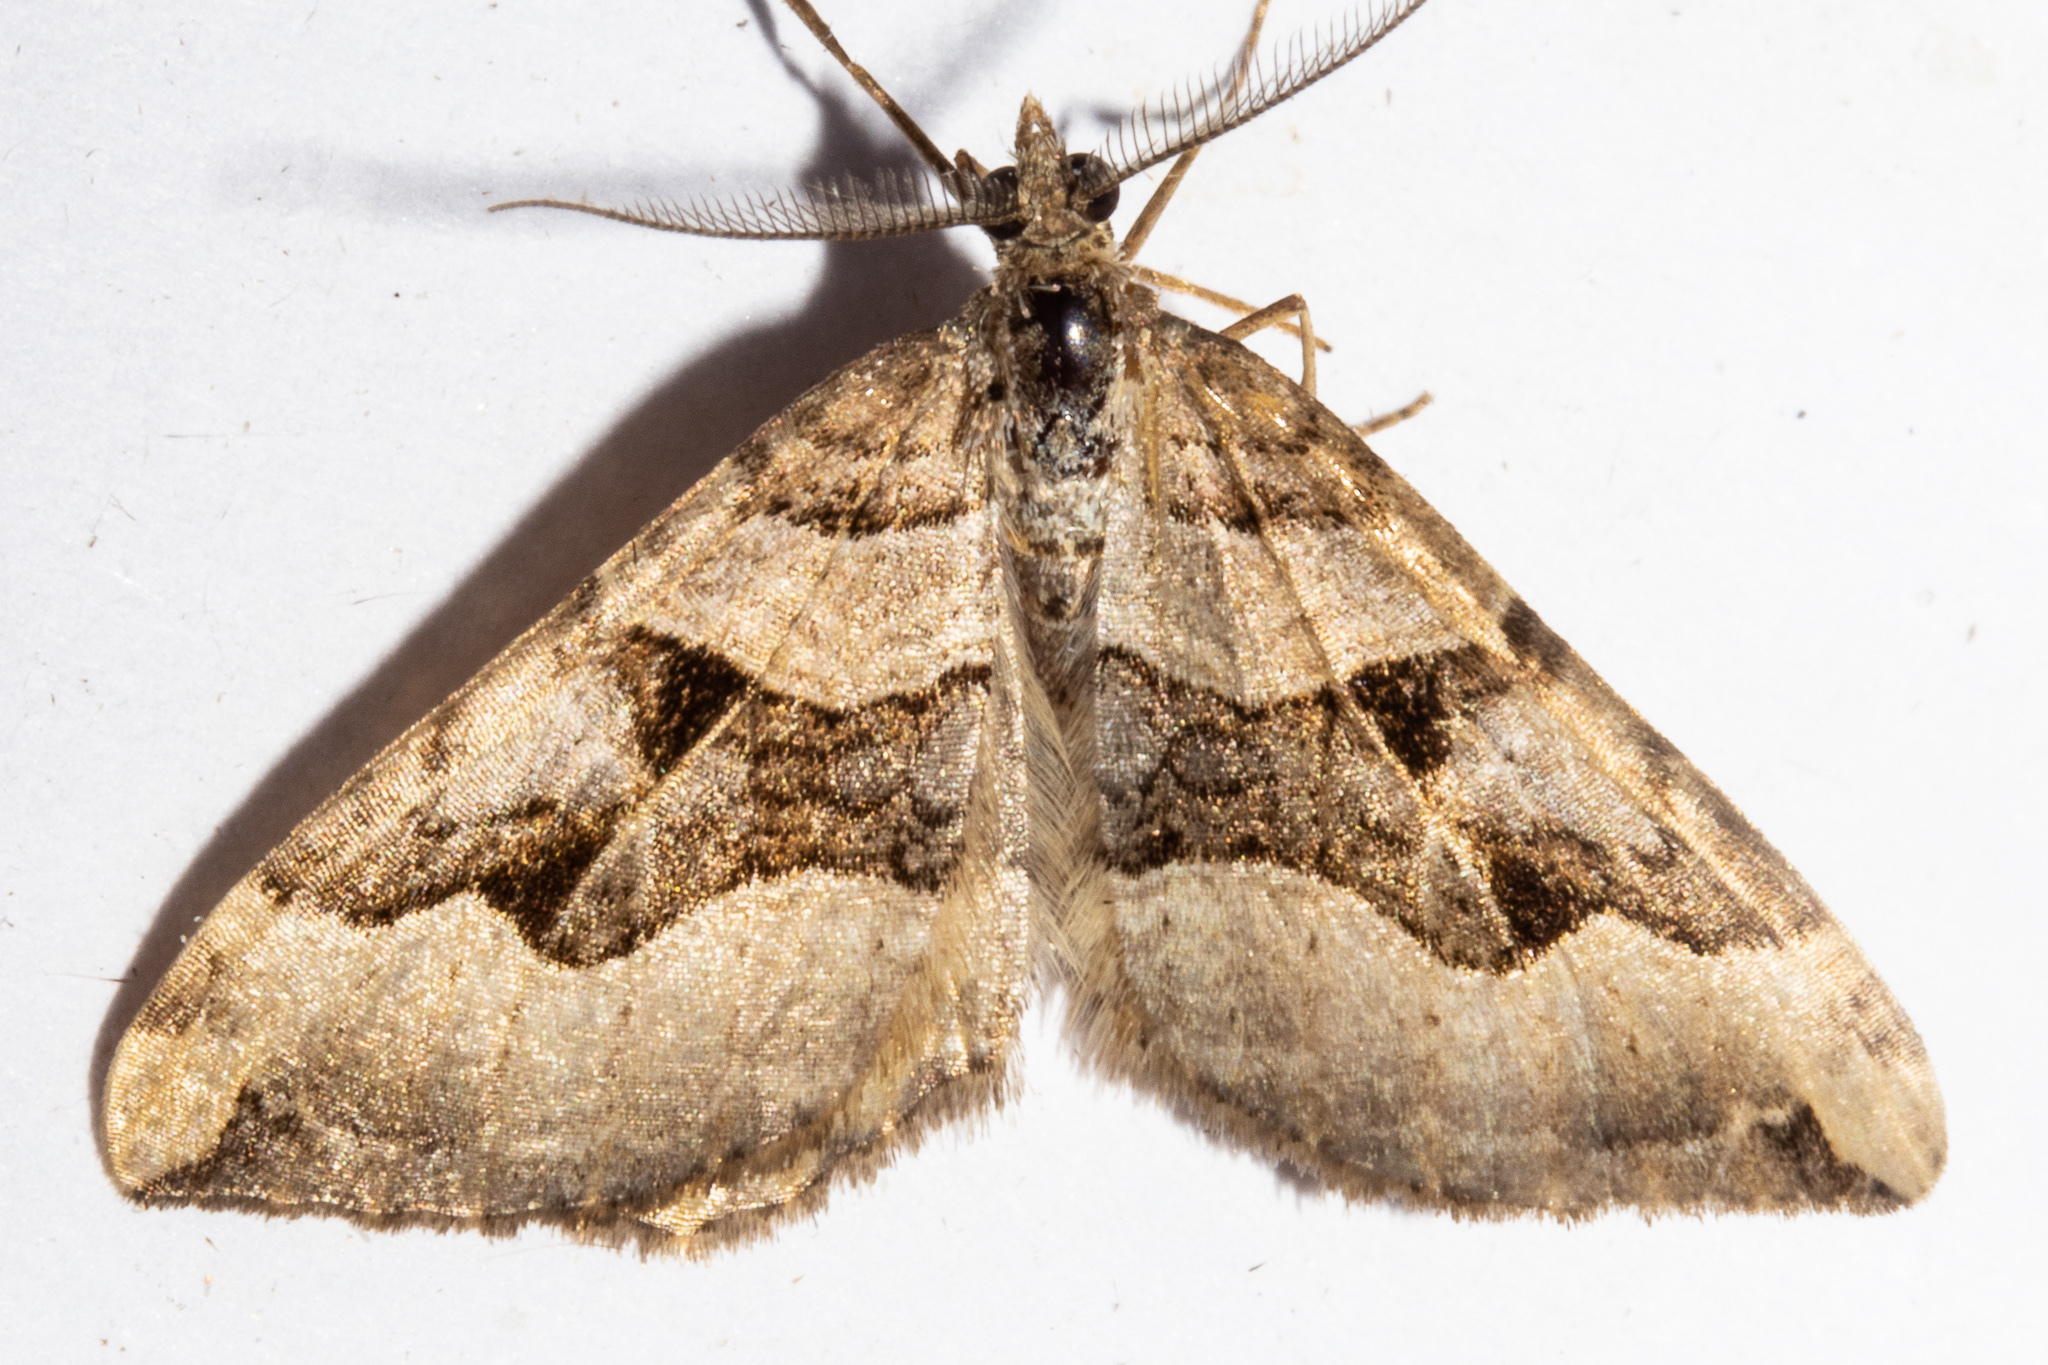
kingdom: Animalia
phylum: Arthropoda
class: Insecta
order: Lepidoptera
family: Geometridae
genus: Xanthorhoe
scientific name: Xanthorhoe semifissata
